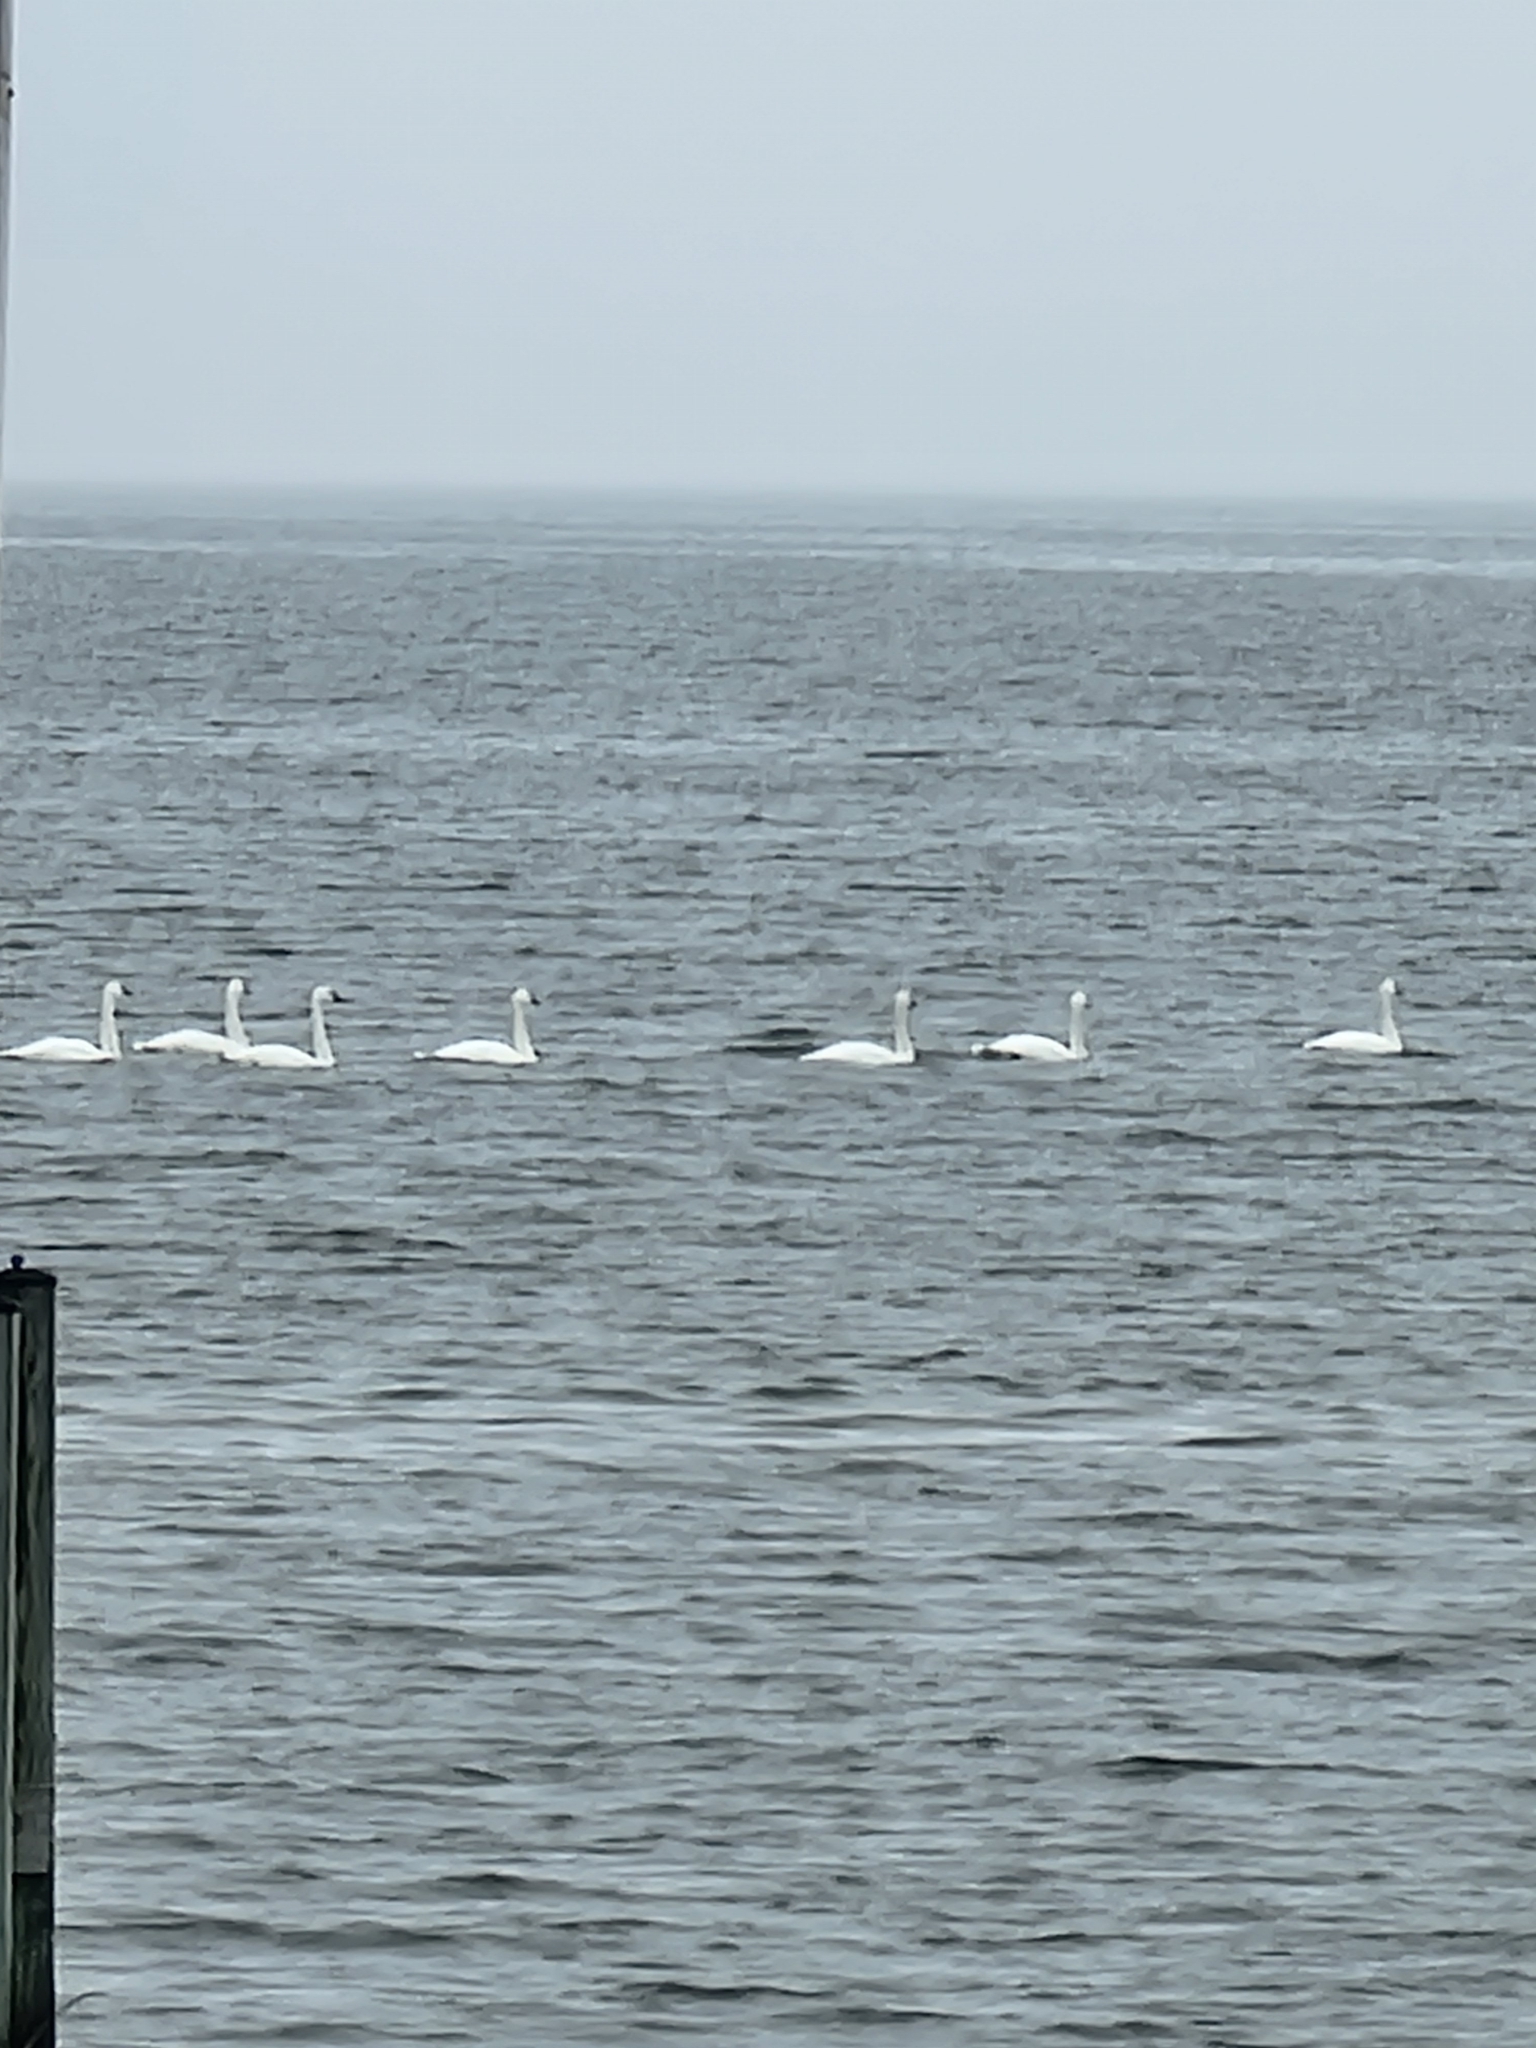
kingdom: Animalia
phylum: Chordata
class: Aves
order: Anseriformes
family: Anatidae
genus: Cygnus
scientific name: Cygnus columbianus
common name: Tundra swan
